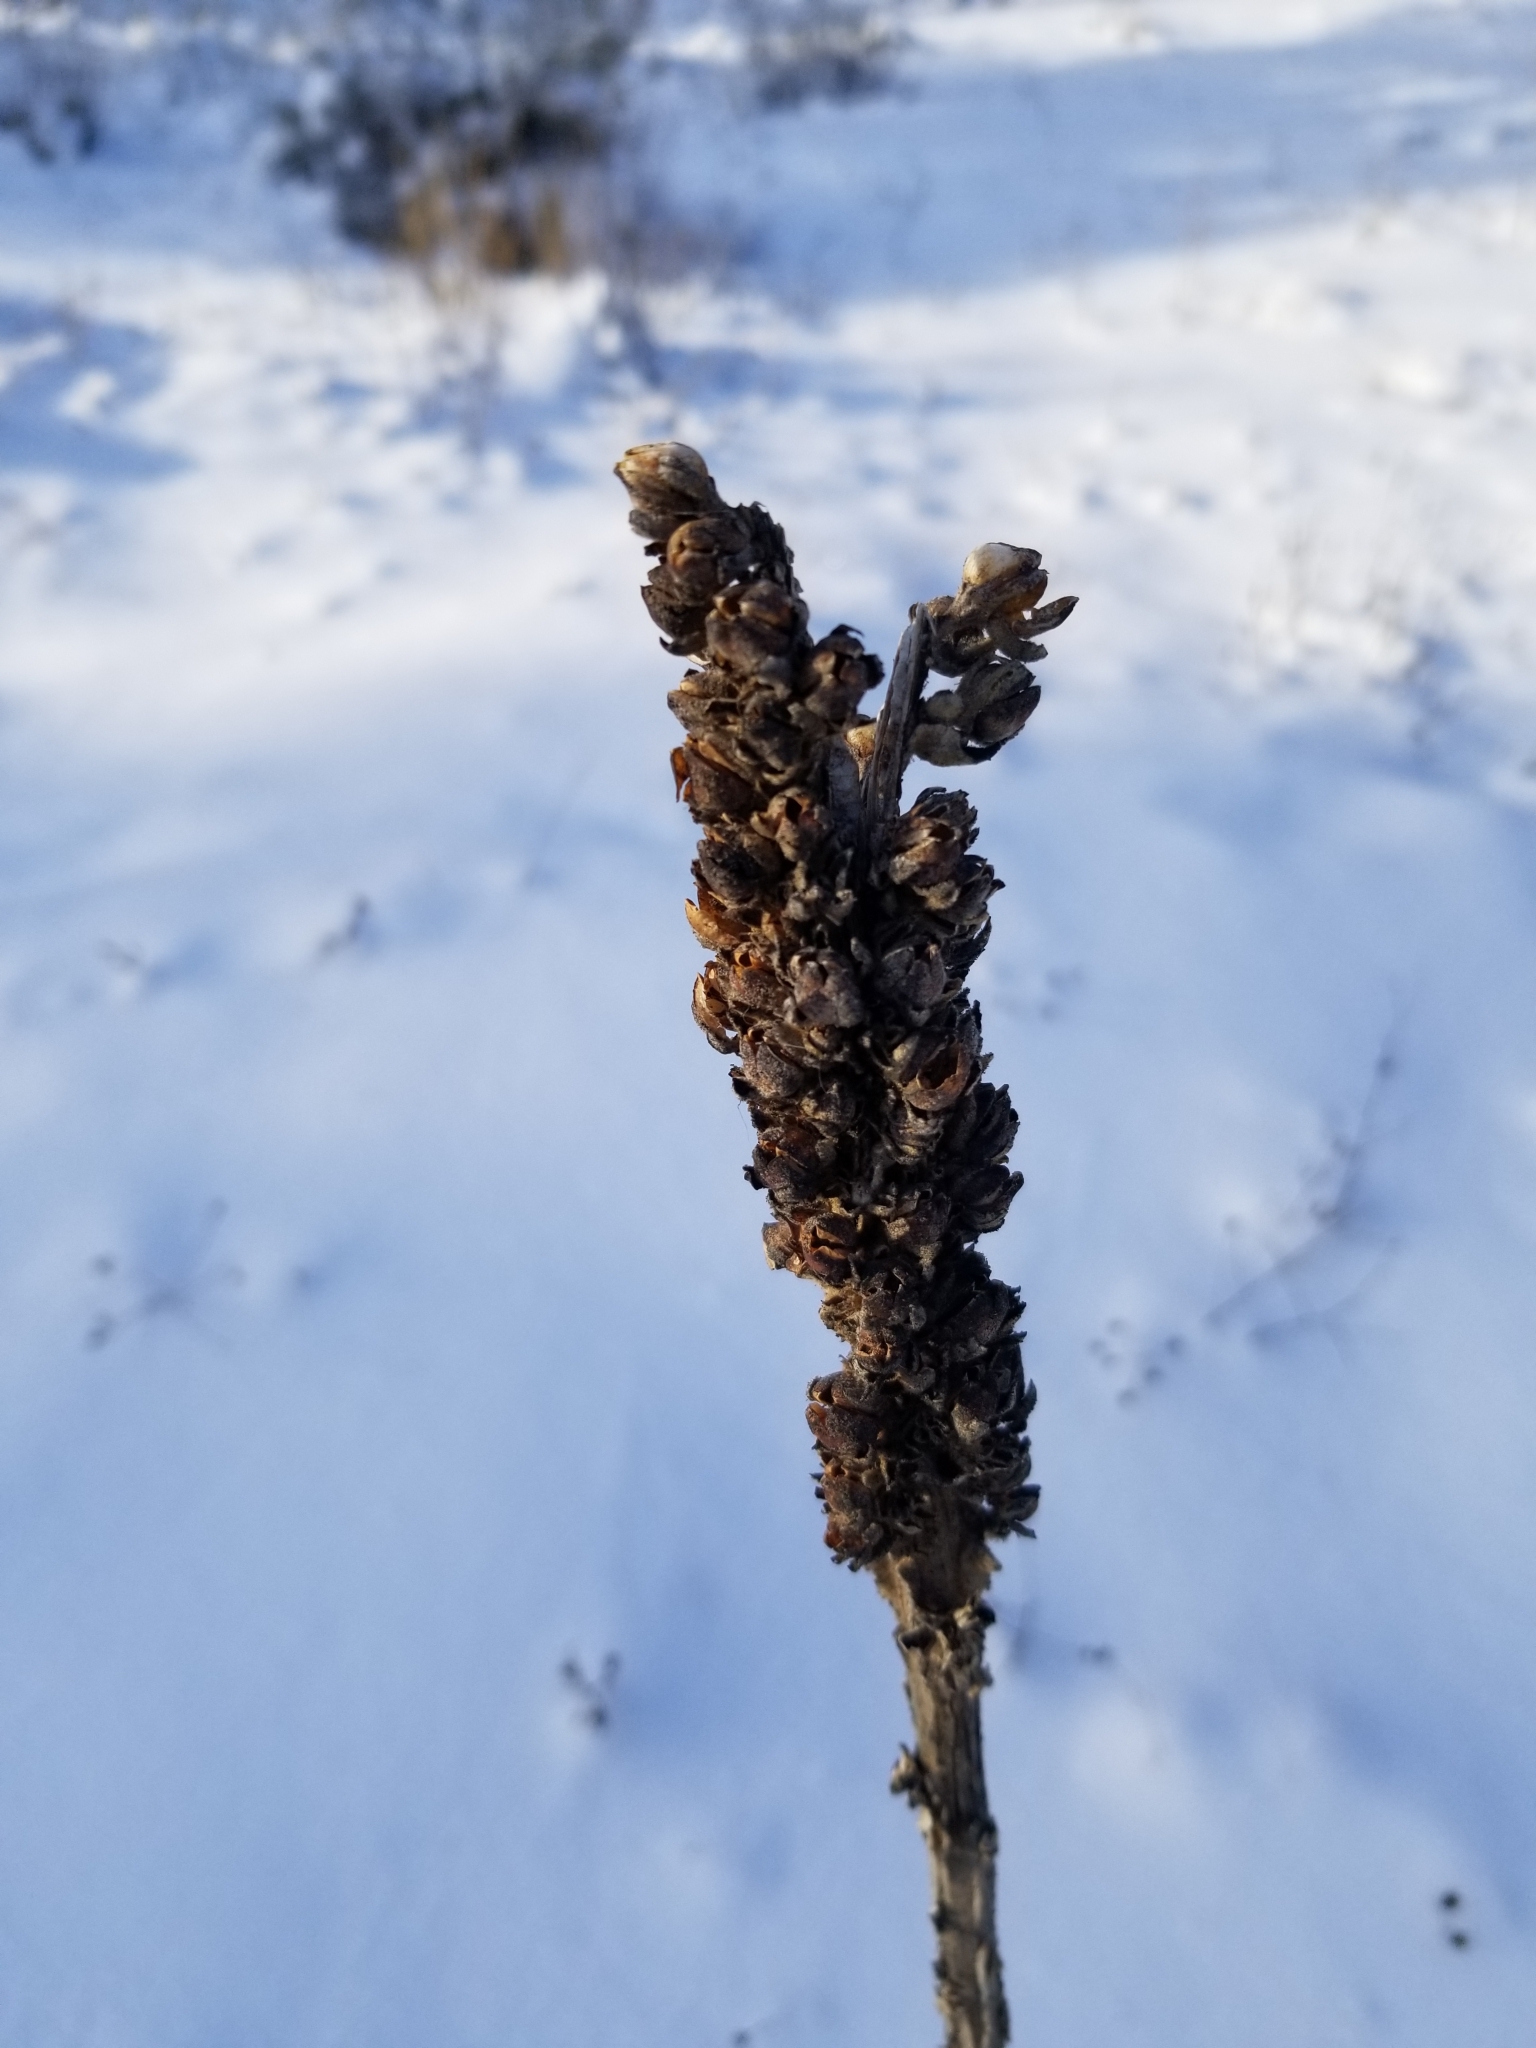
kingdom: Plantae
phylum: Tracheophyta
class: Magnoliopsida
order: Lamiales
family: Scrophulariaceae
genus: Verbascum
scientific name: Verbascum thapsus
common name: Common mullein
